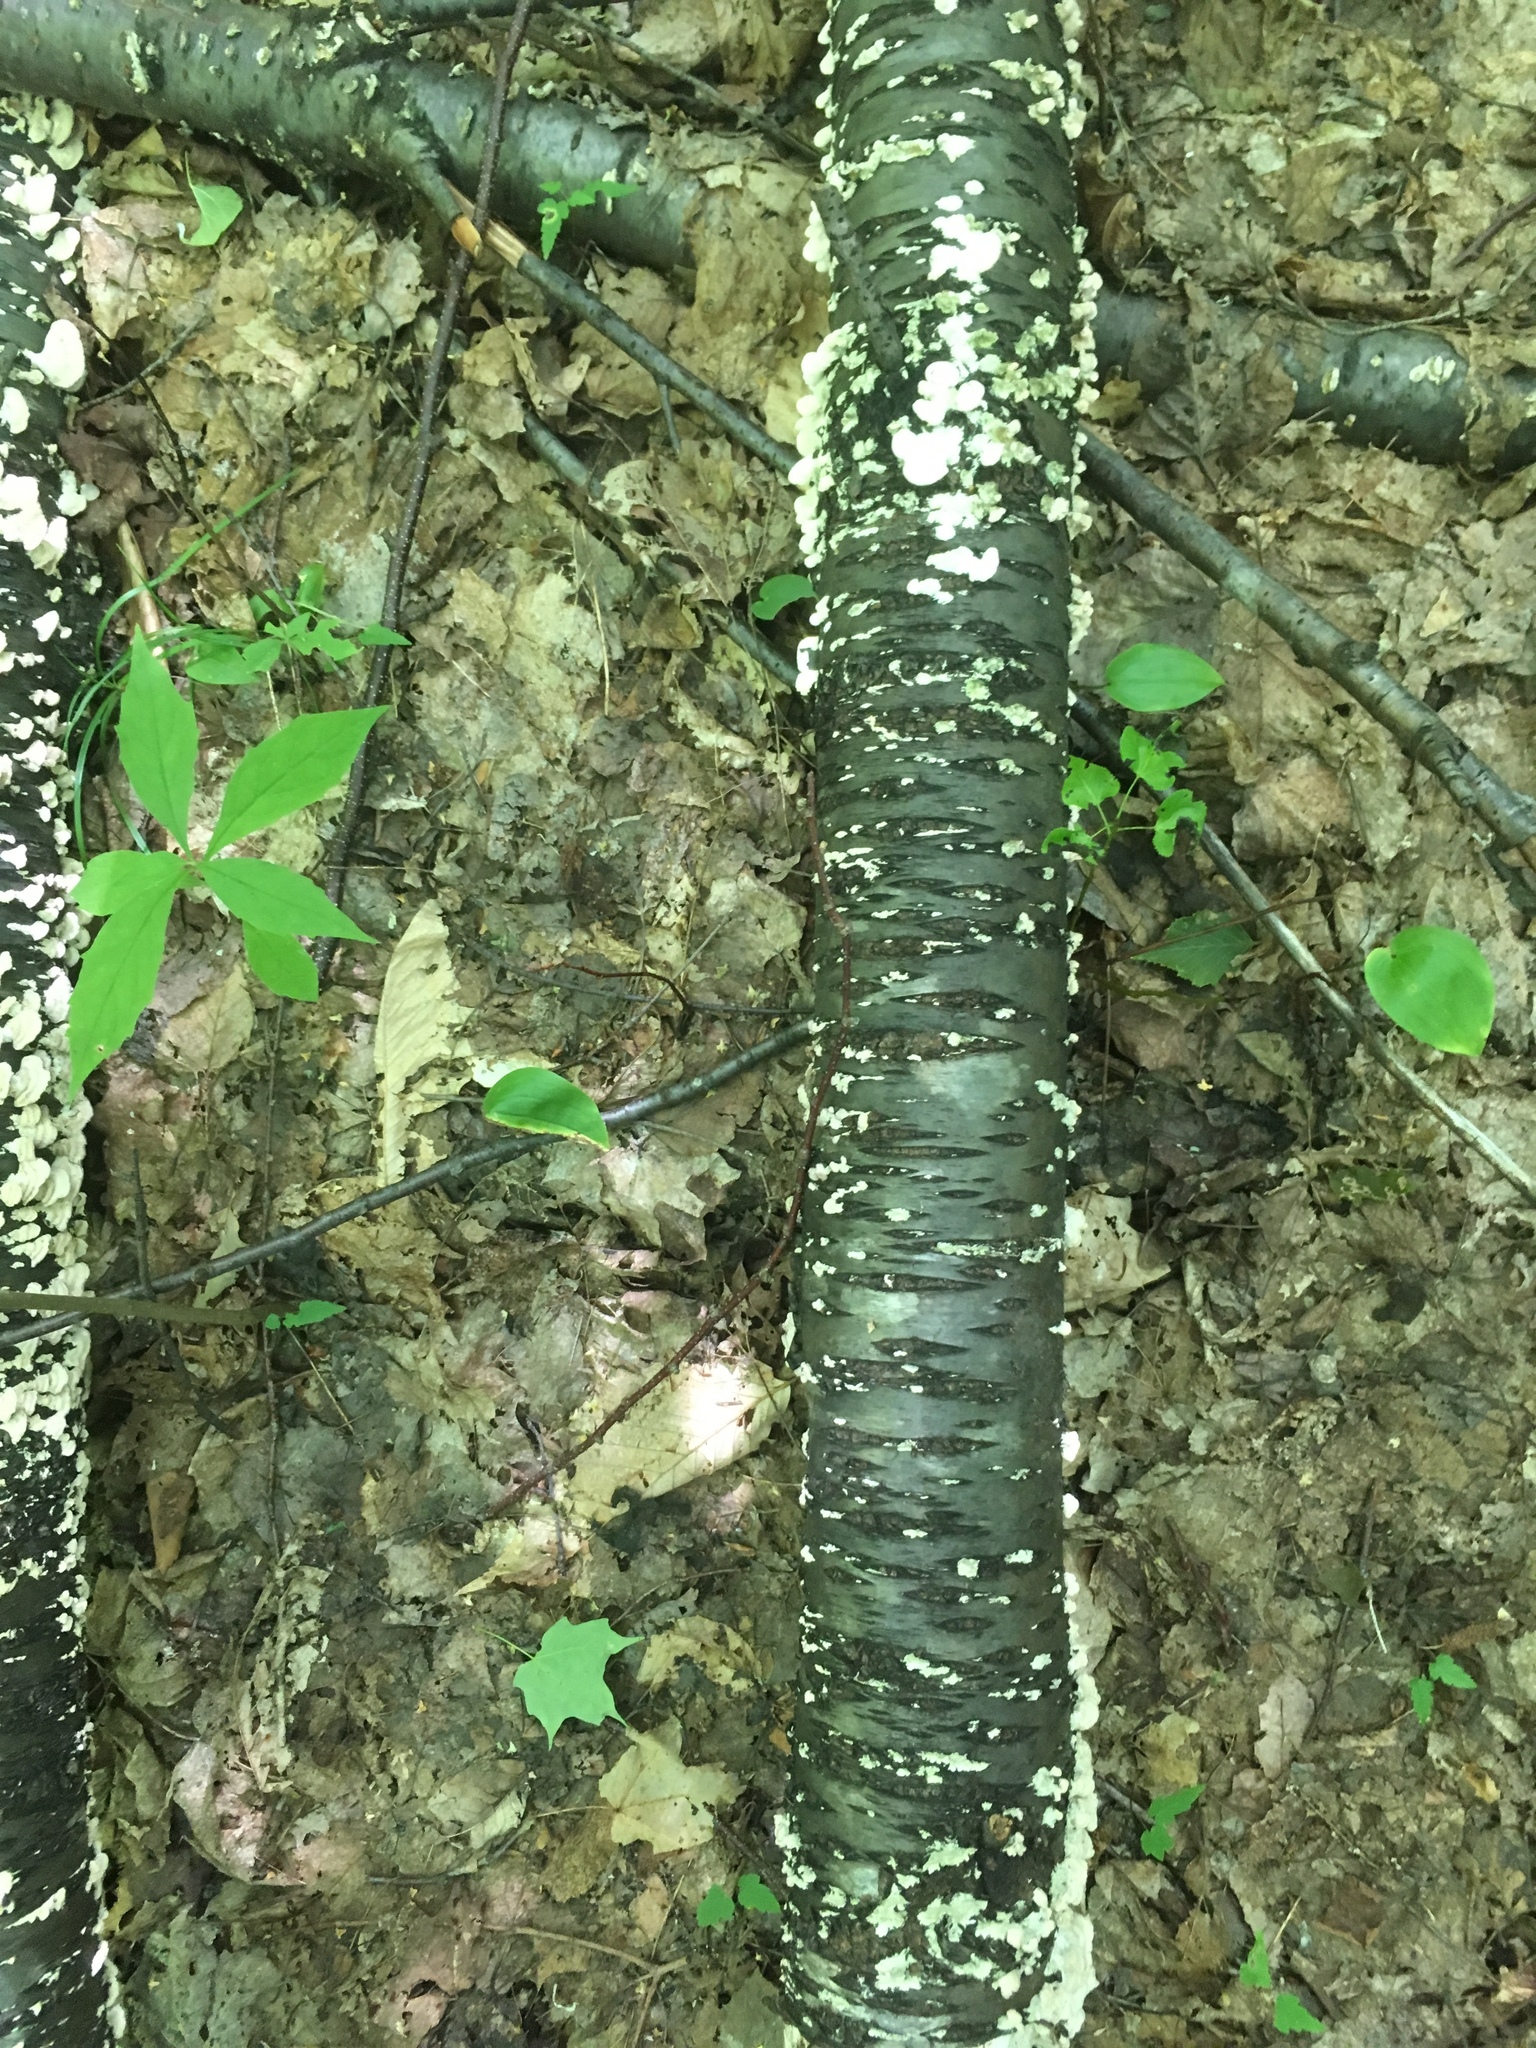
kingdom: Plantae
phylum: Tracheophyta
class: Magnoliopsida
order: Rosales
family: Rosaceae
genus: Prunus
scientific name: Prunus pensylvanica
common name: Pin cherry
